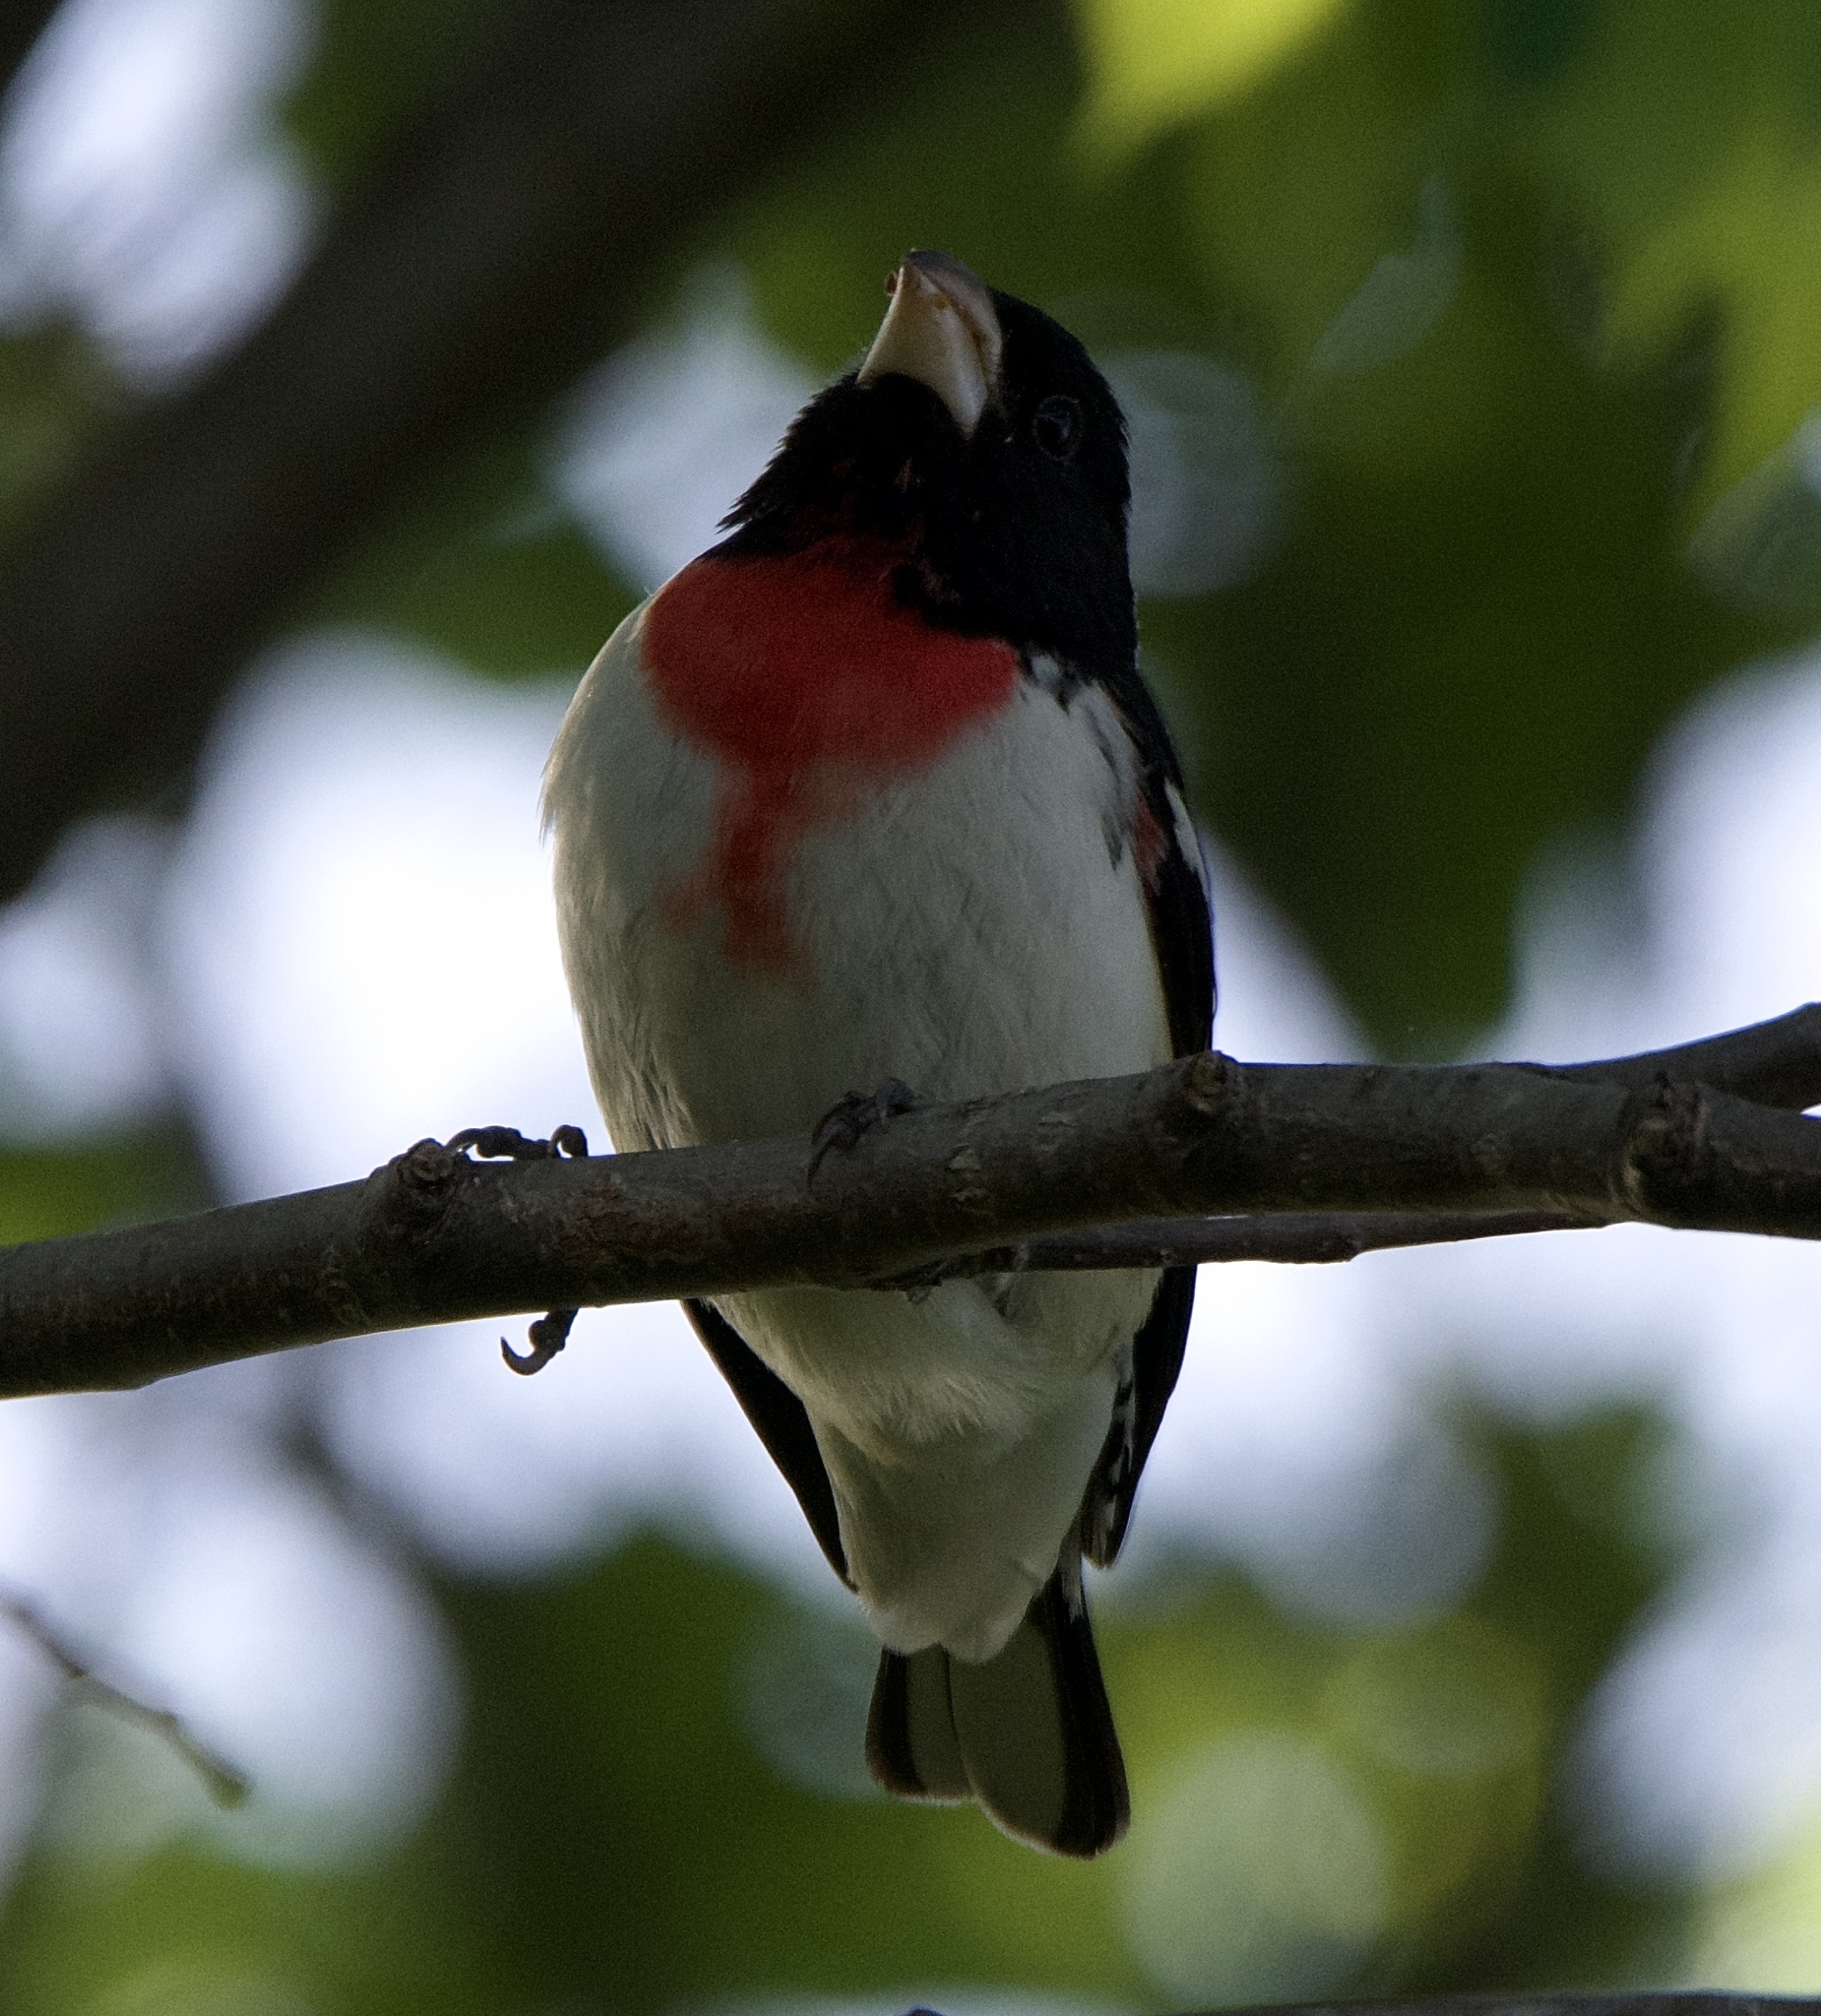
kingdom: Animalia
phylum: Chordata
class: Aves
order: Passeriformes
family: Cardinalidae
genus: Pheucticus
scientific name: Pheucticus ludovicianus
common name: Rose-breasted grosbeak
